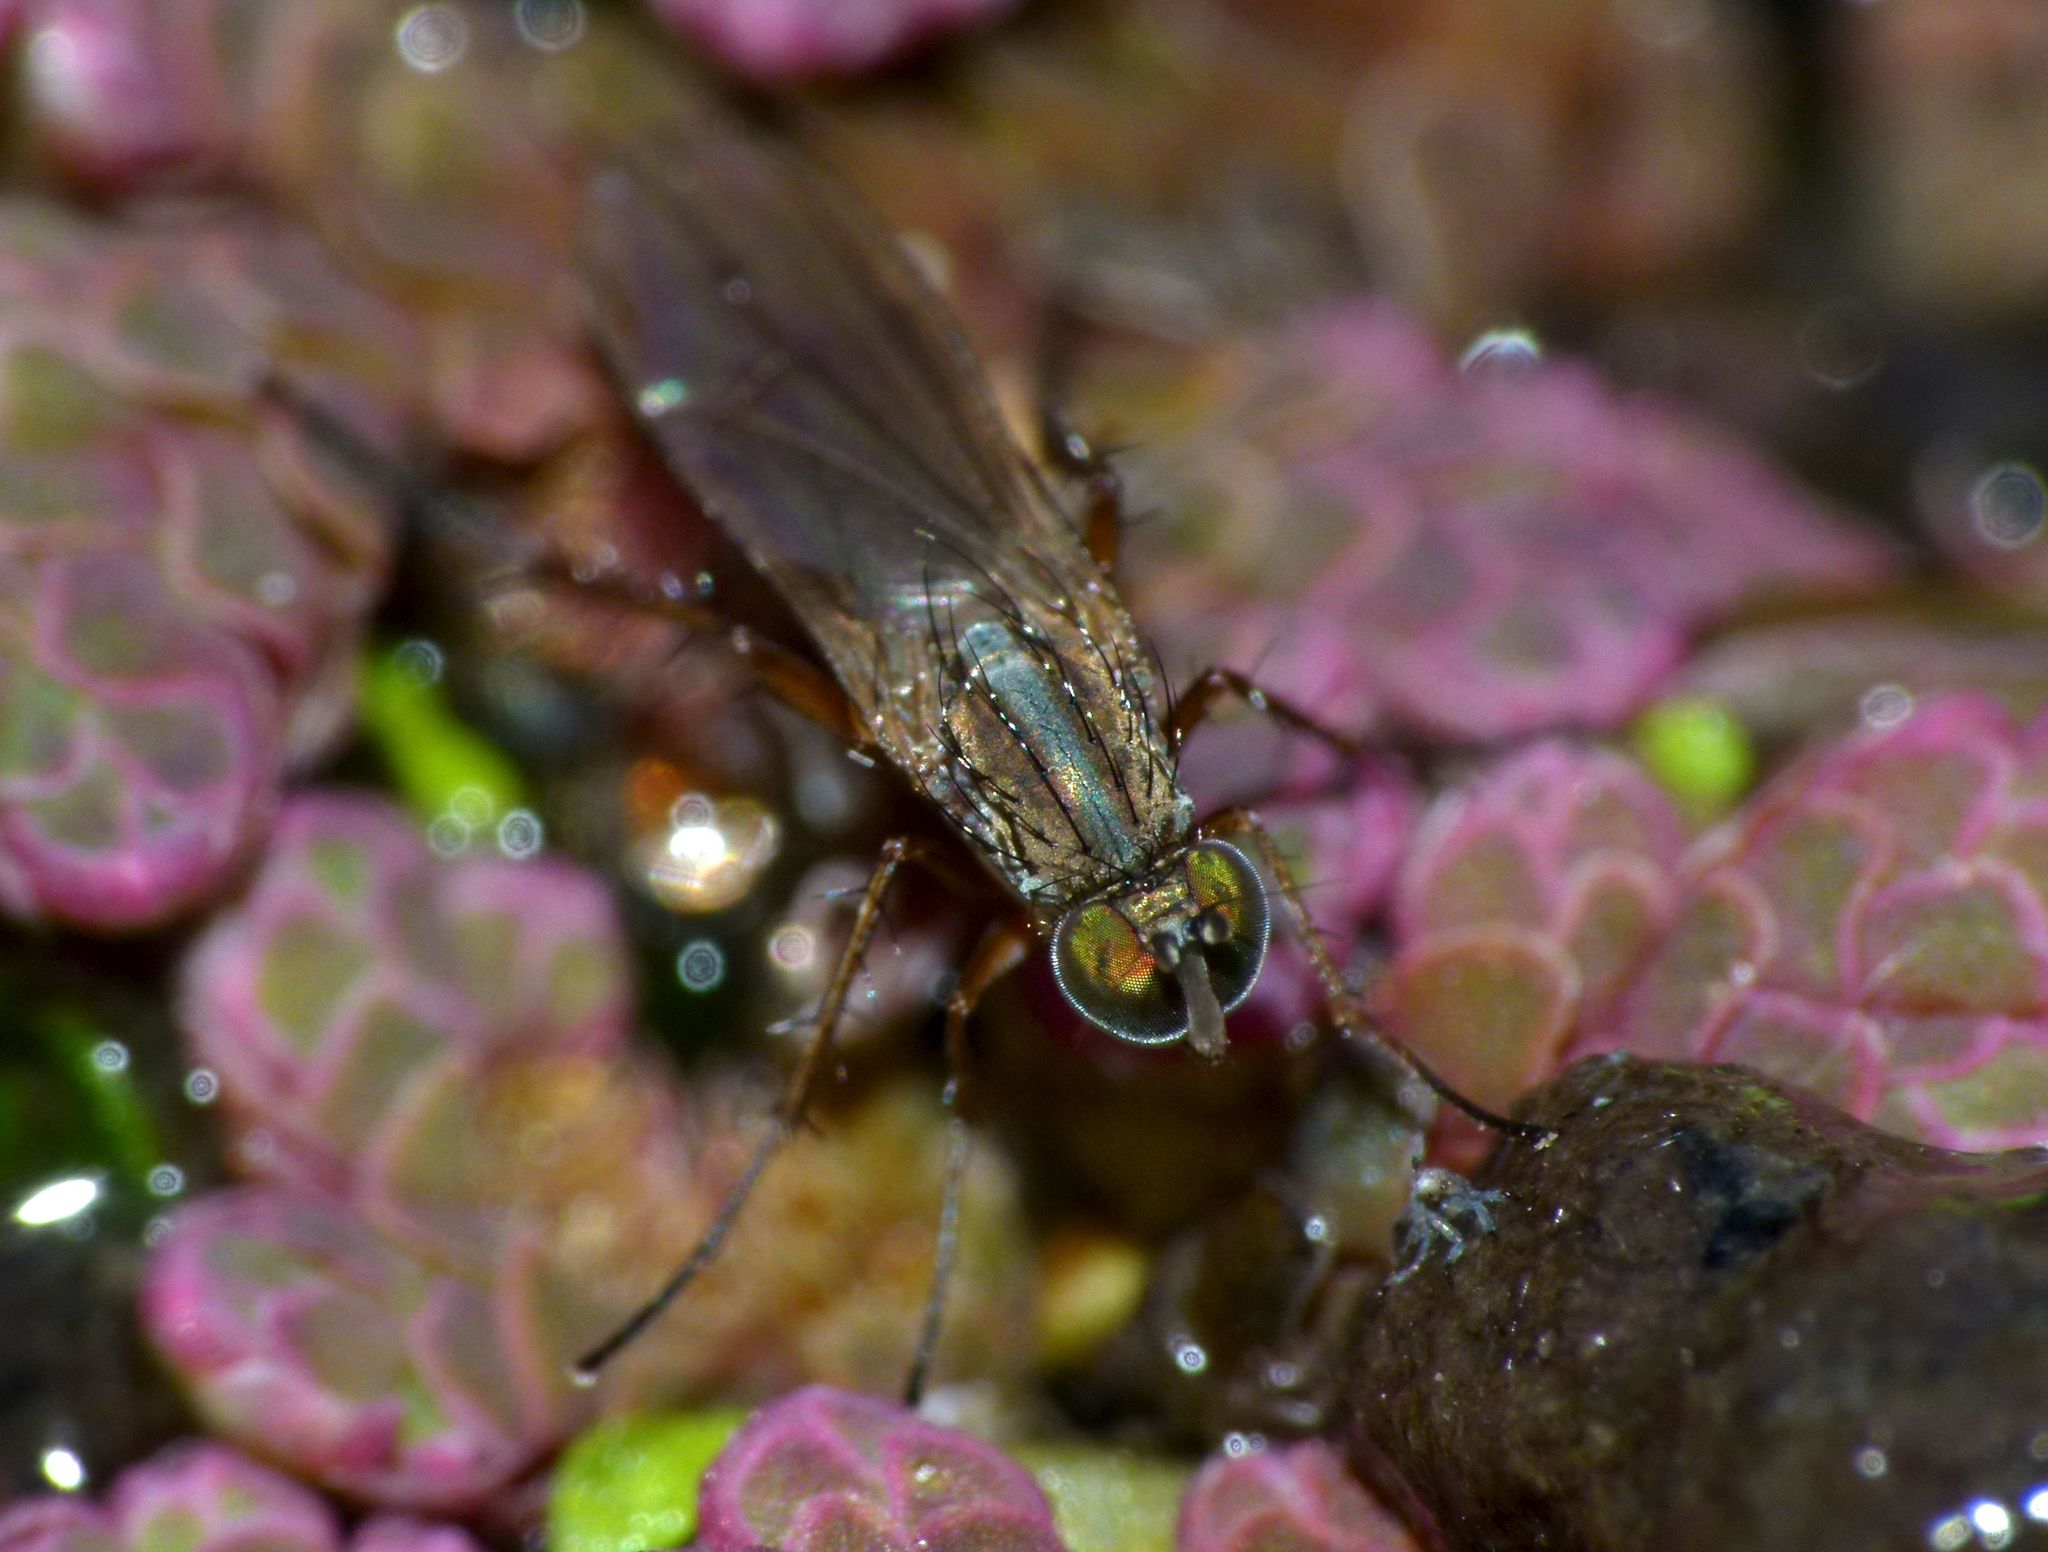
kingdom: Animalia
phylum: Arthropoda
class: Insecta
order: Diptera
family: Dolichopodidae
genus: Tetrachaetus
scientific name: Tetrachaetus bipunctatus
